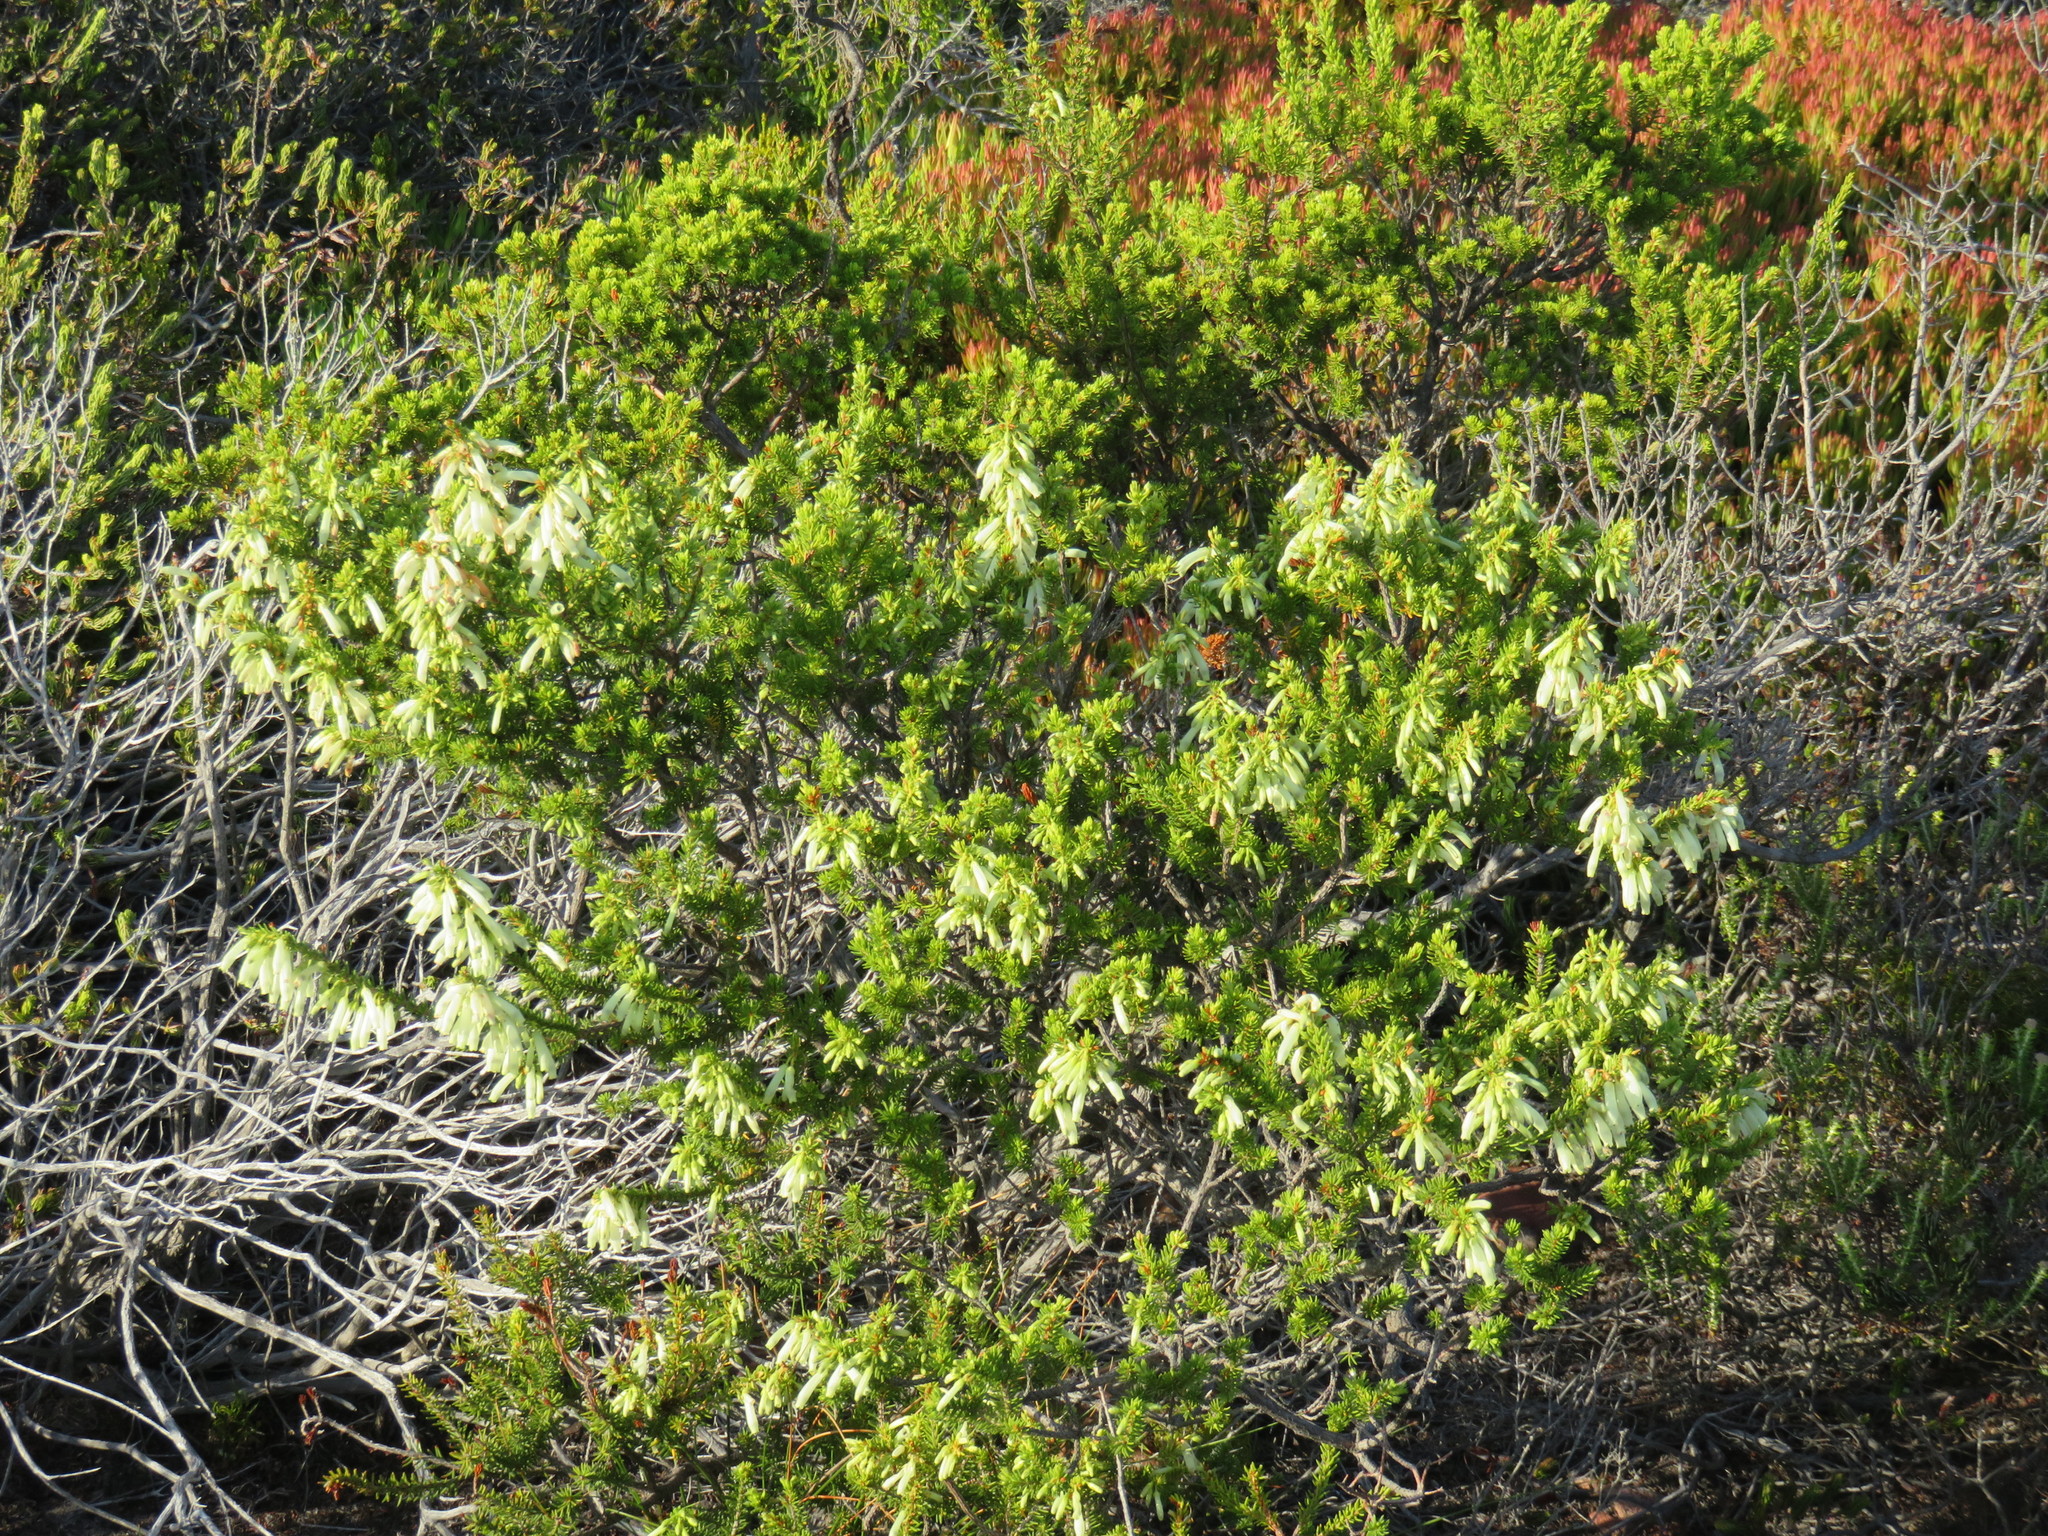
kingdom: Plantae
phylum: Tracheophyta
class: Magnoliopsida
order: Ericales
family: Ericaceae
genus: Erica
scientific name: Erica mammosa
